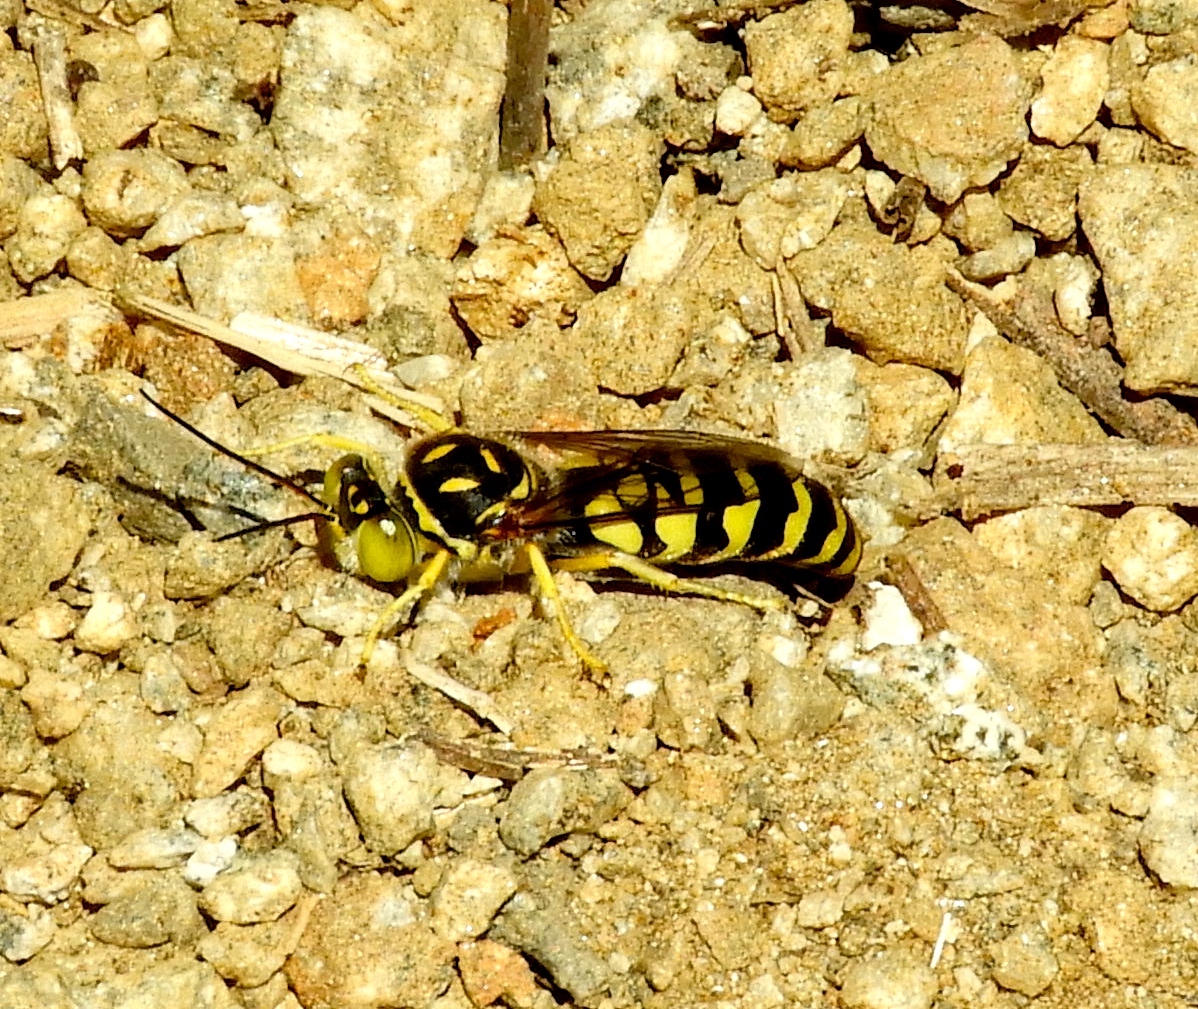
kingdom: Animalia
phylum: Arthropoda
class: Insecta
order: Hymenoptera
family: Crabronidae
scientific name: Crabronidae
